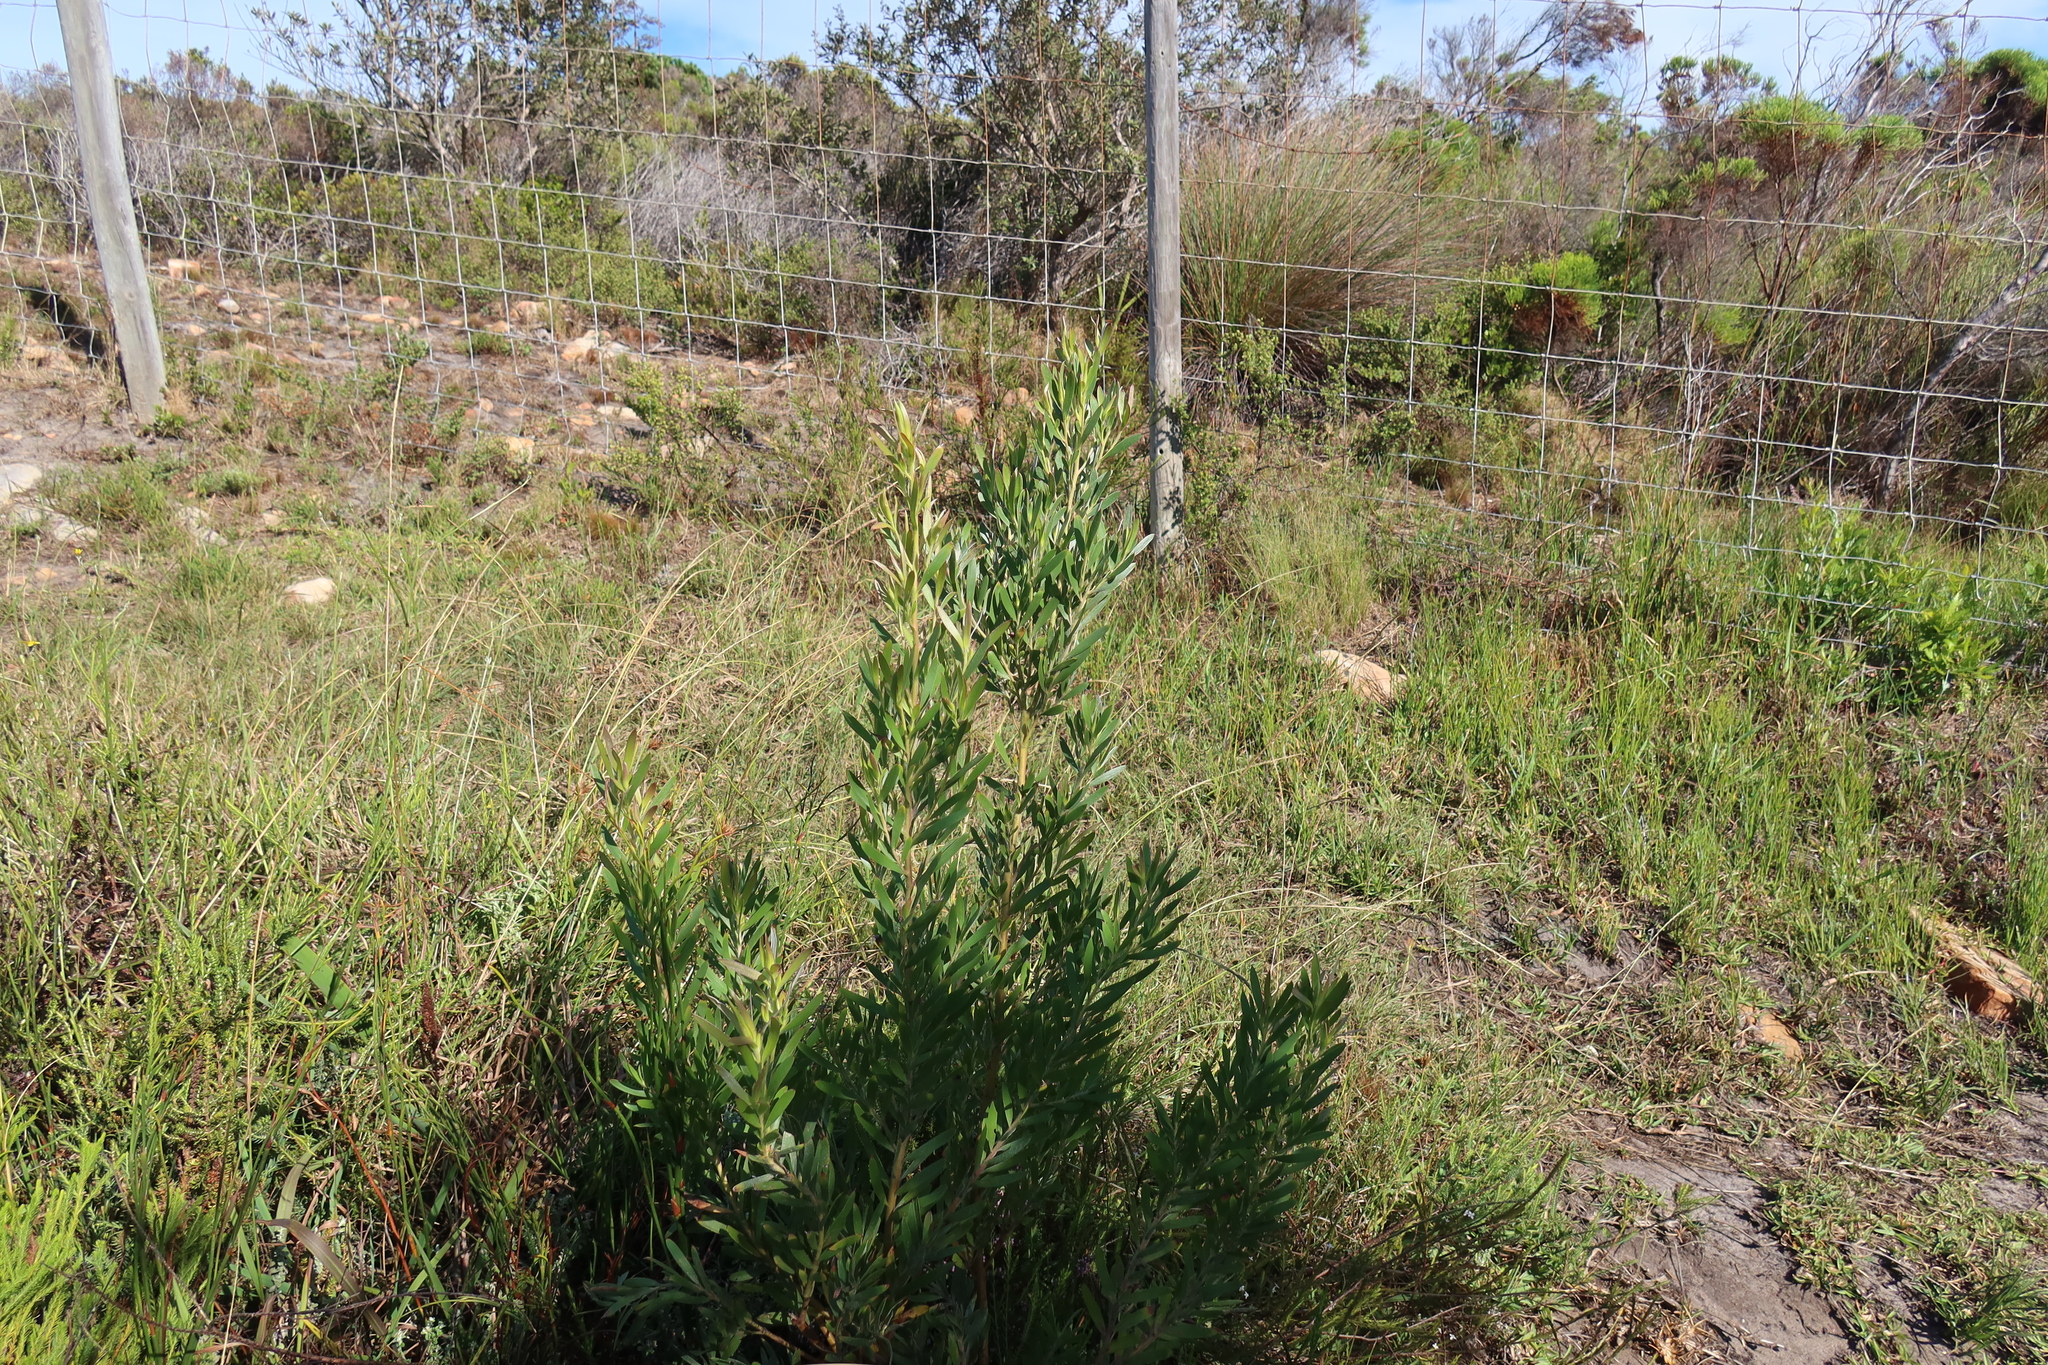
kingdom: Plantae
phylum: Tracheophyta
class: Magnoliopsida
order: Proteales
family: Proteaceae
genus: Leucadendron
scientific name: Leucadendron macowanii
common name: Acacia-leaf conebush
